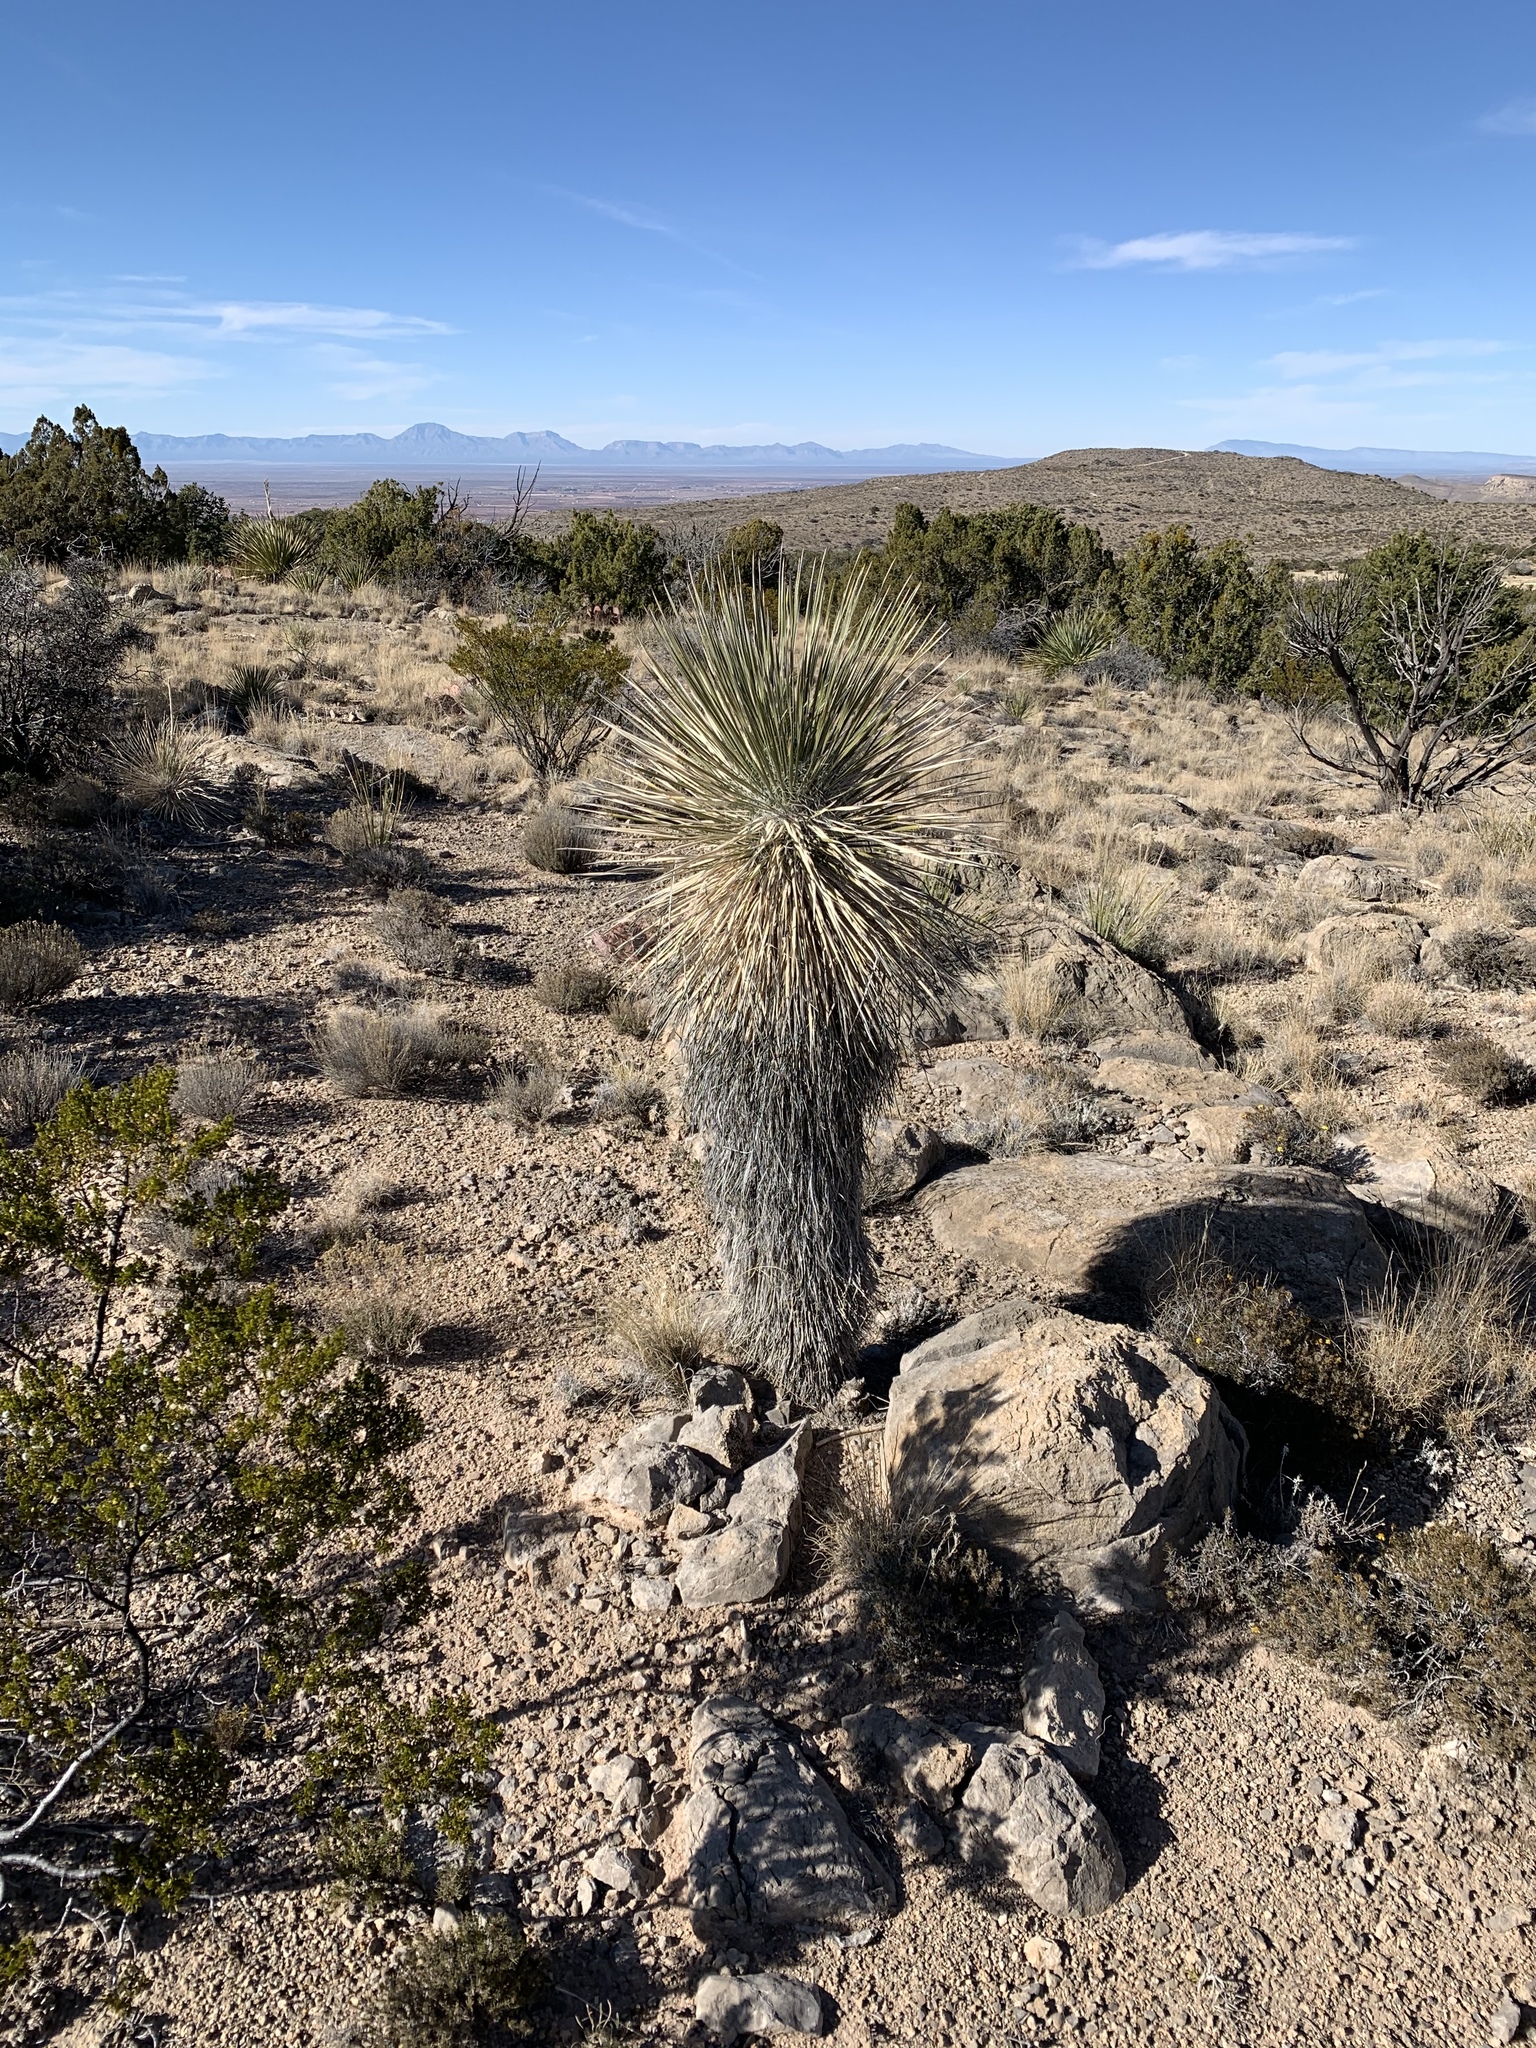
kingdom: Plantae
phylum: Tracheophyta
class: Liliopsida
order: Asparagales
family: Asparagaceae
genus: Yucca
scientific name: Yucca elata
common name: Palmella
